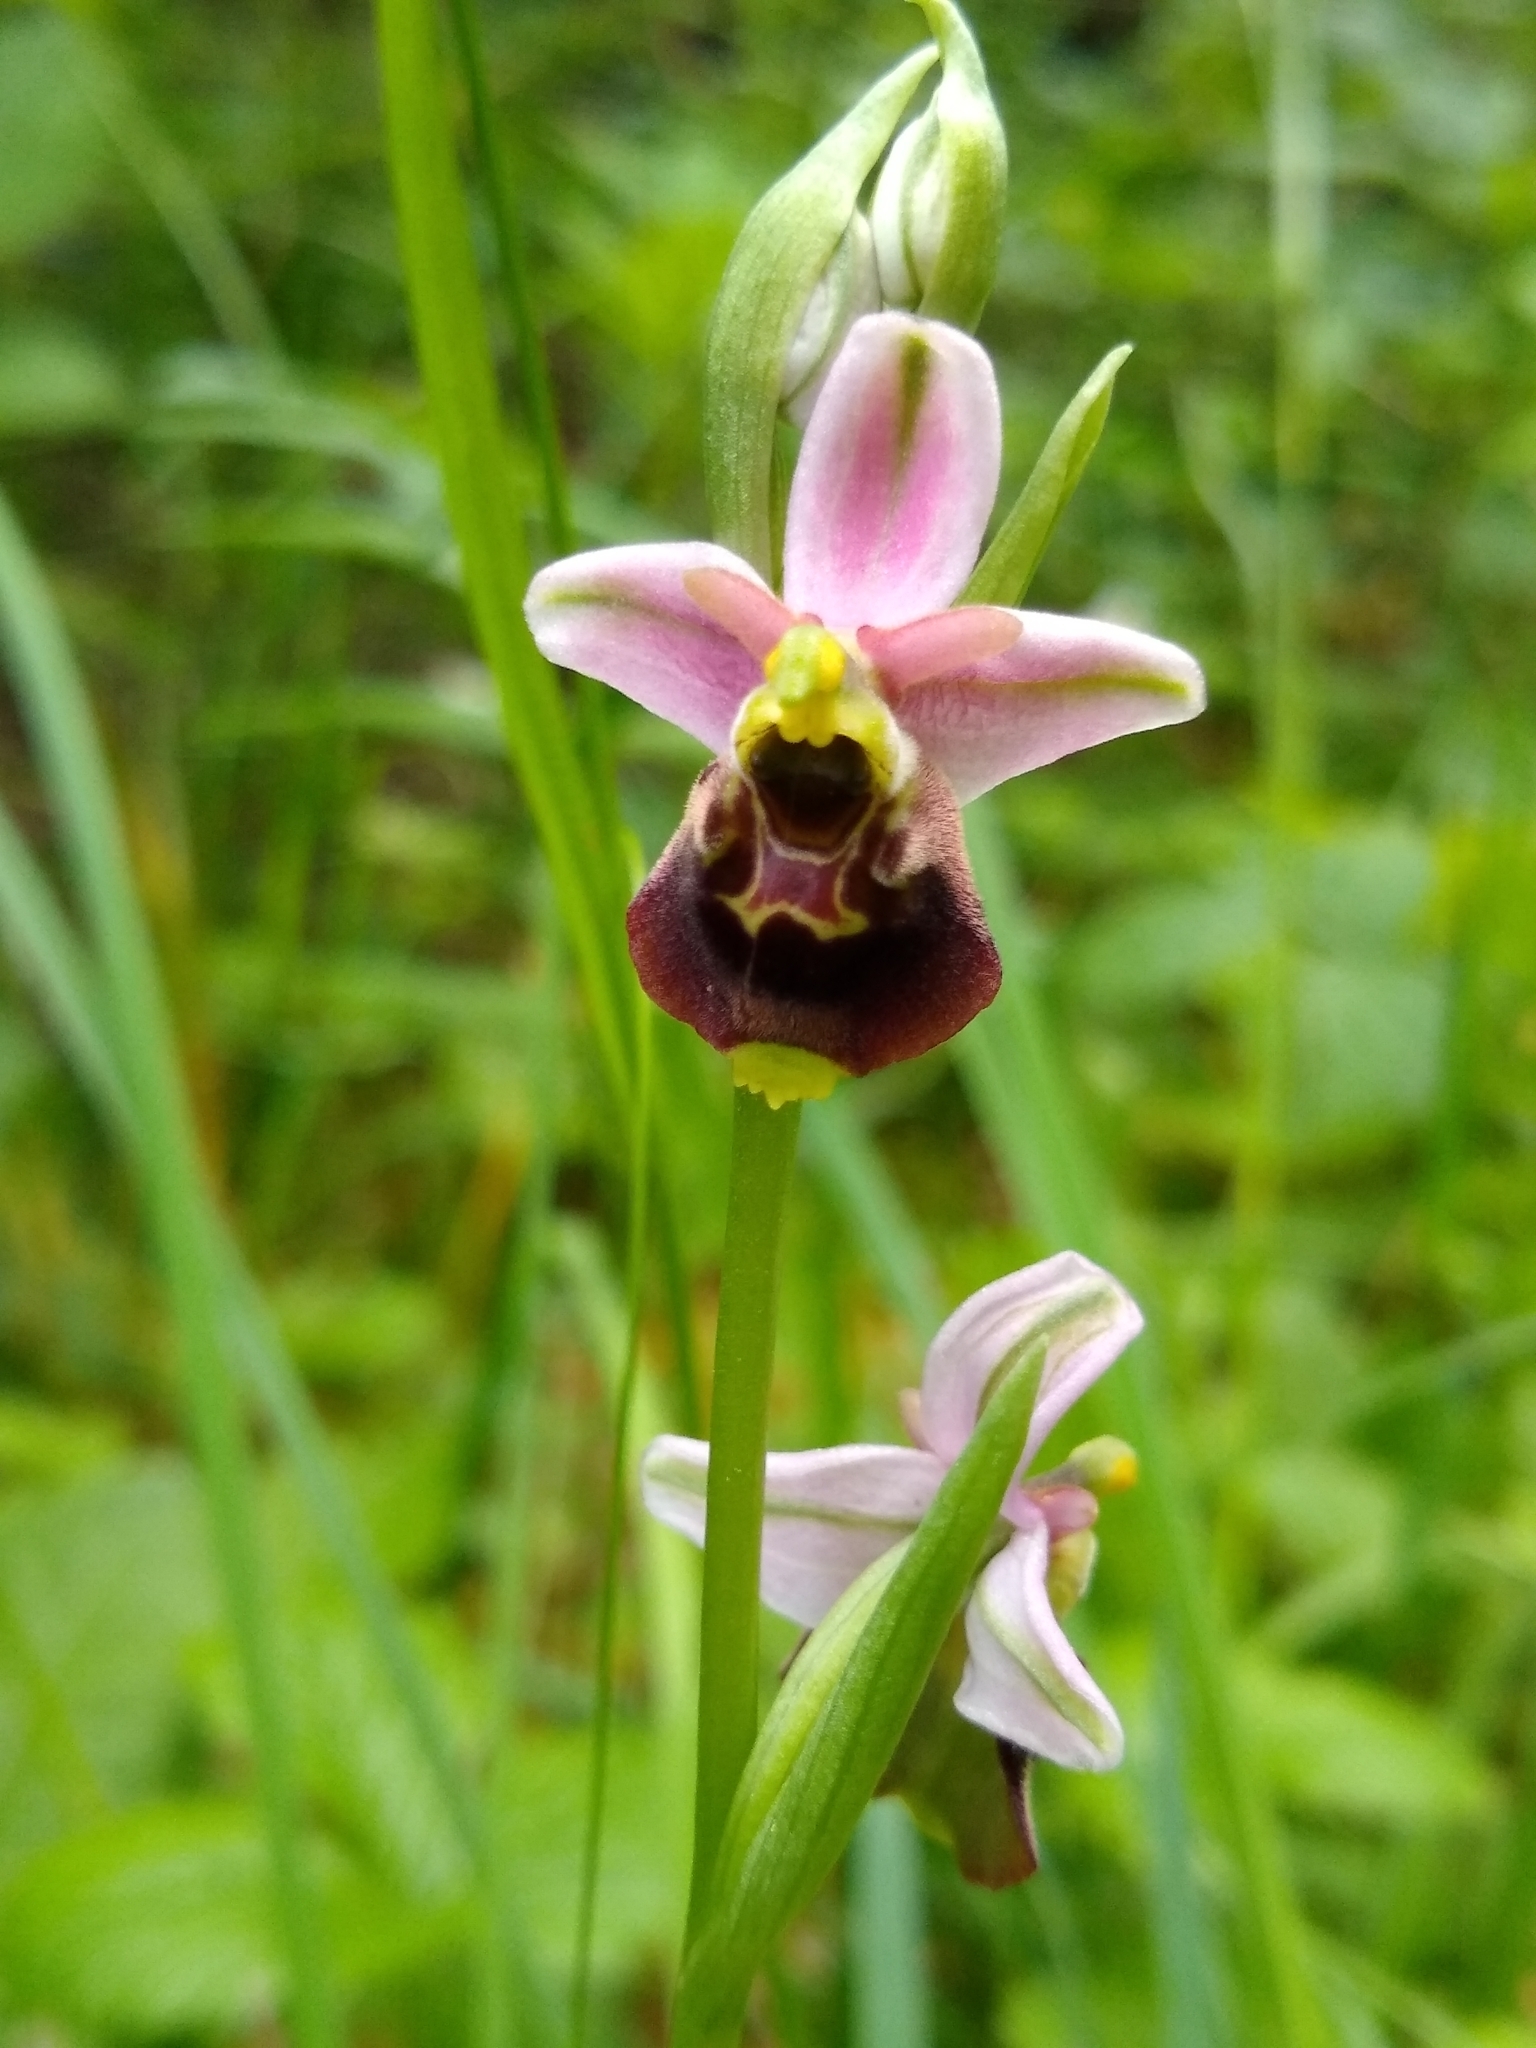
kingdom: Plantae
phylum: Tracheophyta
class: Liliopsida
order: Asparagales
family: Orchidaceae
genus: Ophrys
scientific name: Ophrys holosericea
